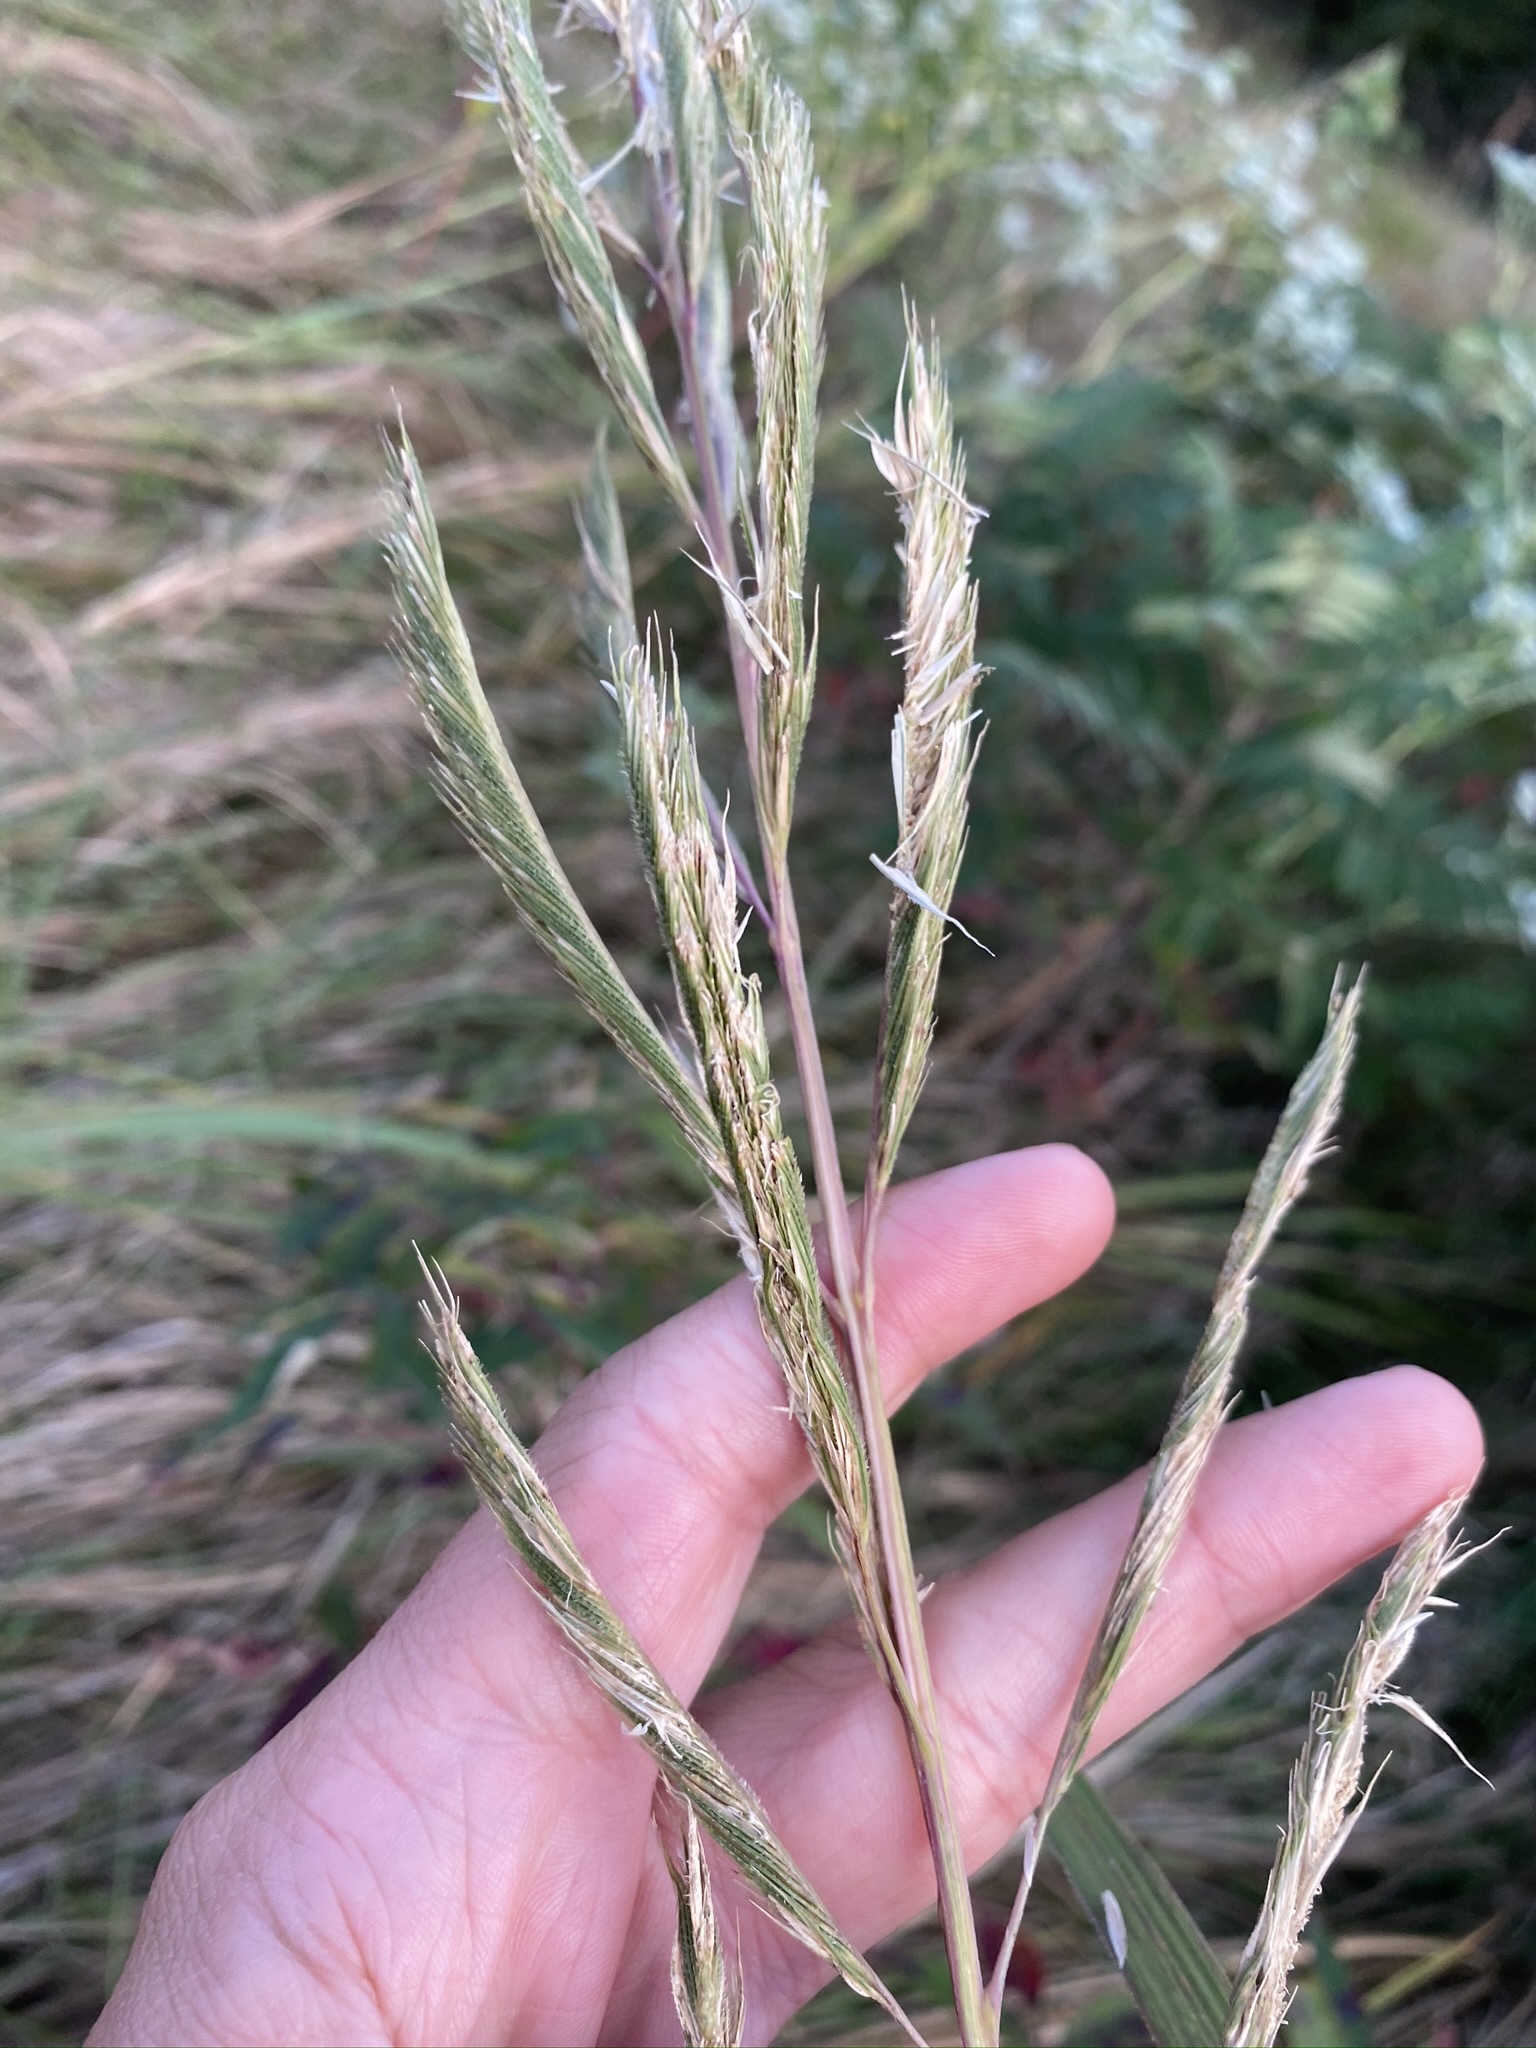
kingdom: Plantae
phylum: Tracheophyta
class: Liliopsida
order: Poales
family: Poaceae
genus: Sporobolus
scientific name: Sporobolus michauxianus
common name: Freshwater cordgrass
